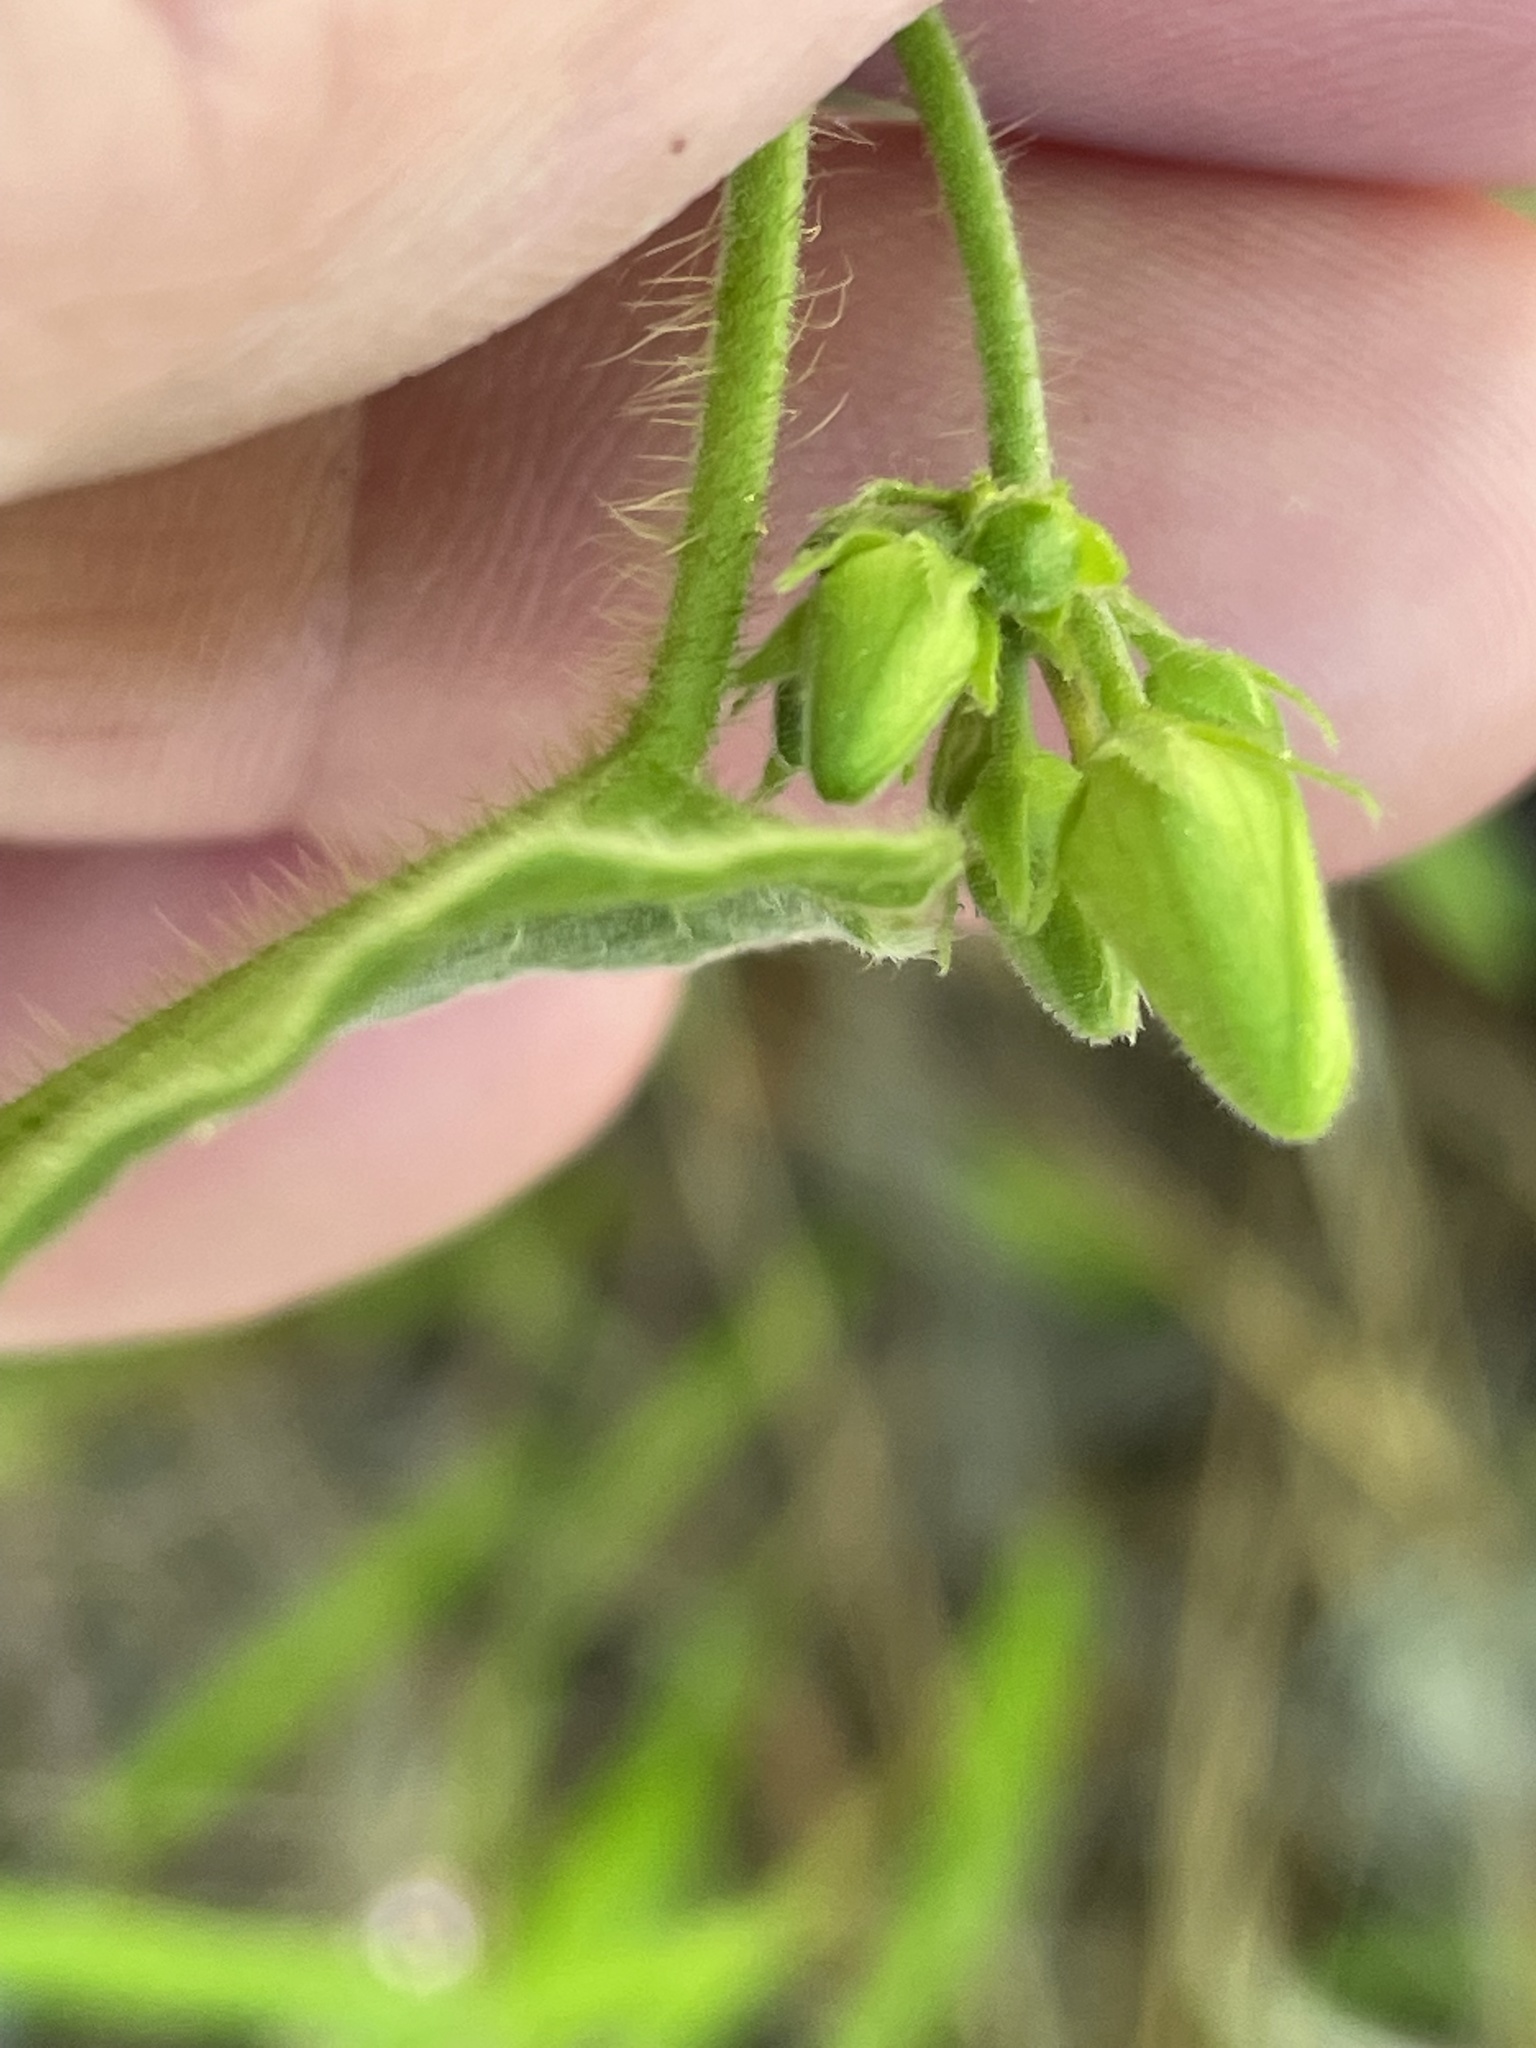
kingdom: Plantae
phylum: Tracheophyta
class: Magnoliopsida
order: Gentianales
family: Apocynaceae
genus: Matelea
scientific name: Matelea carolinensis
